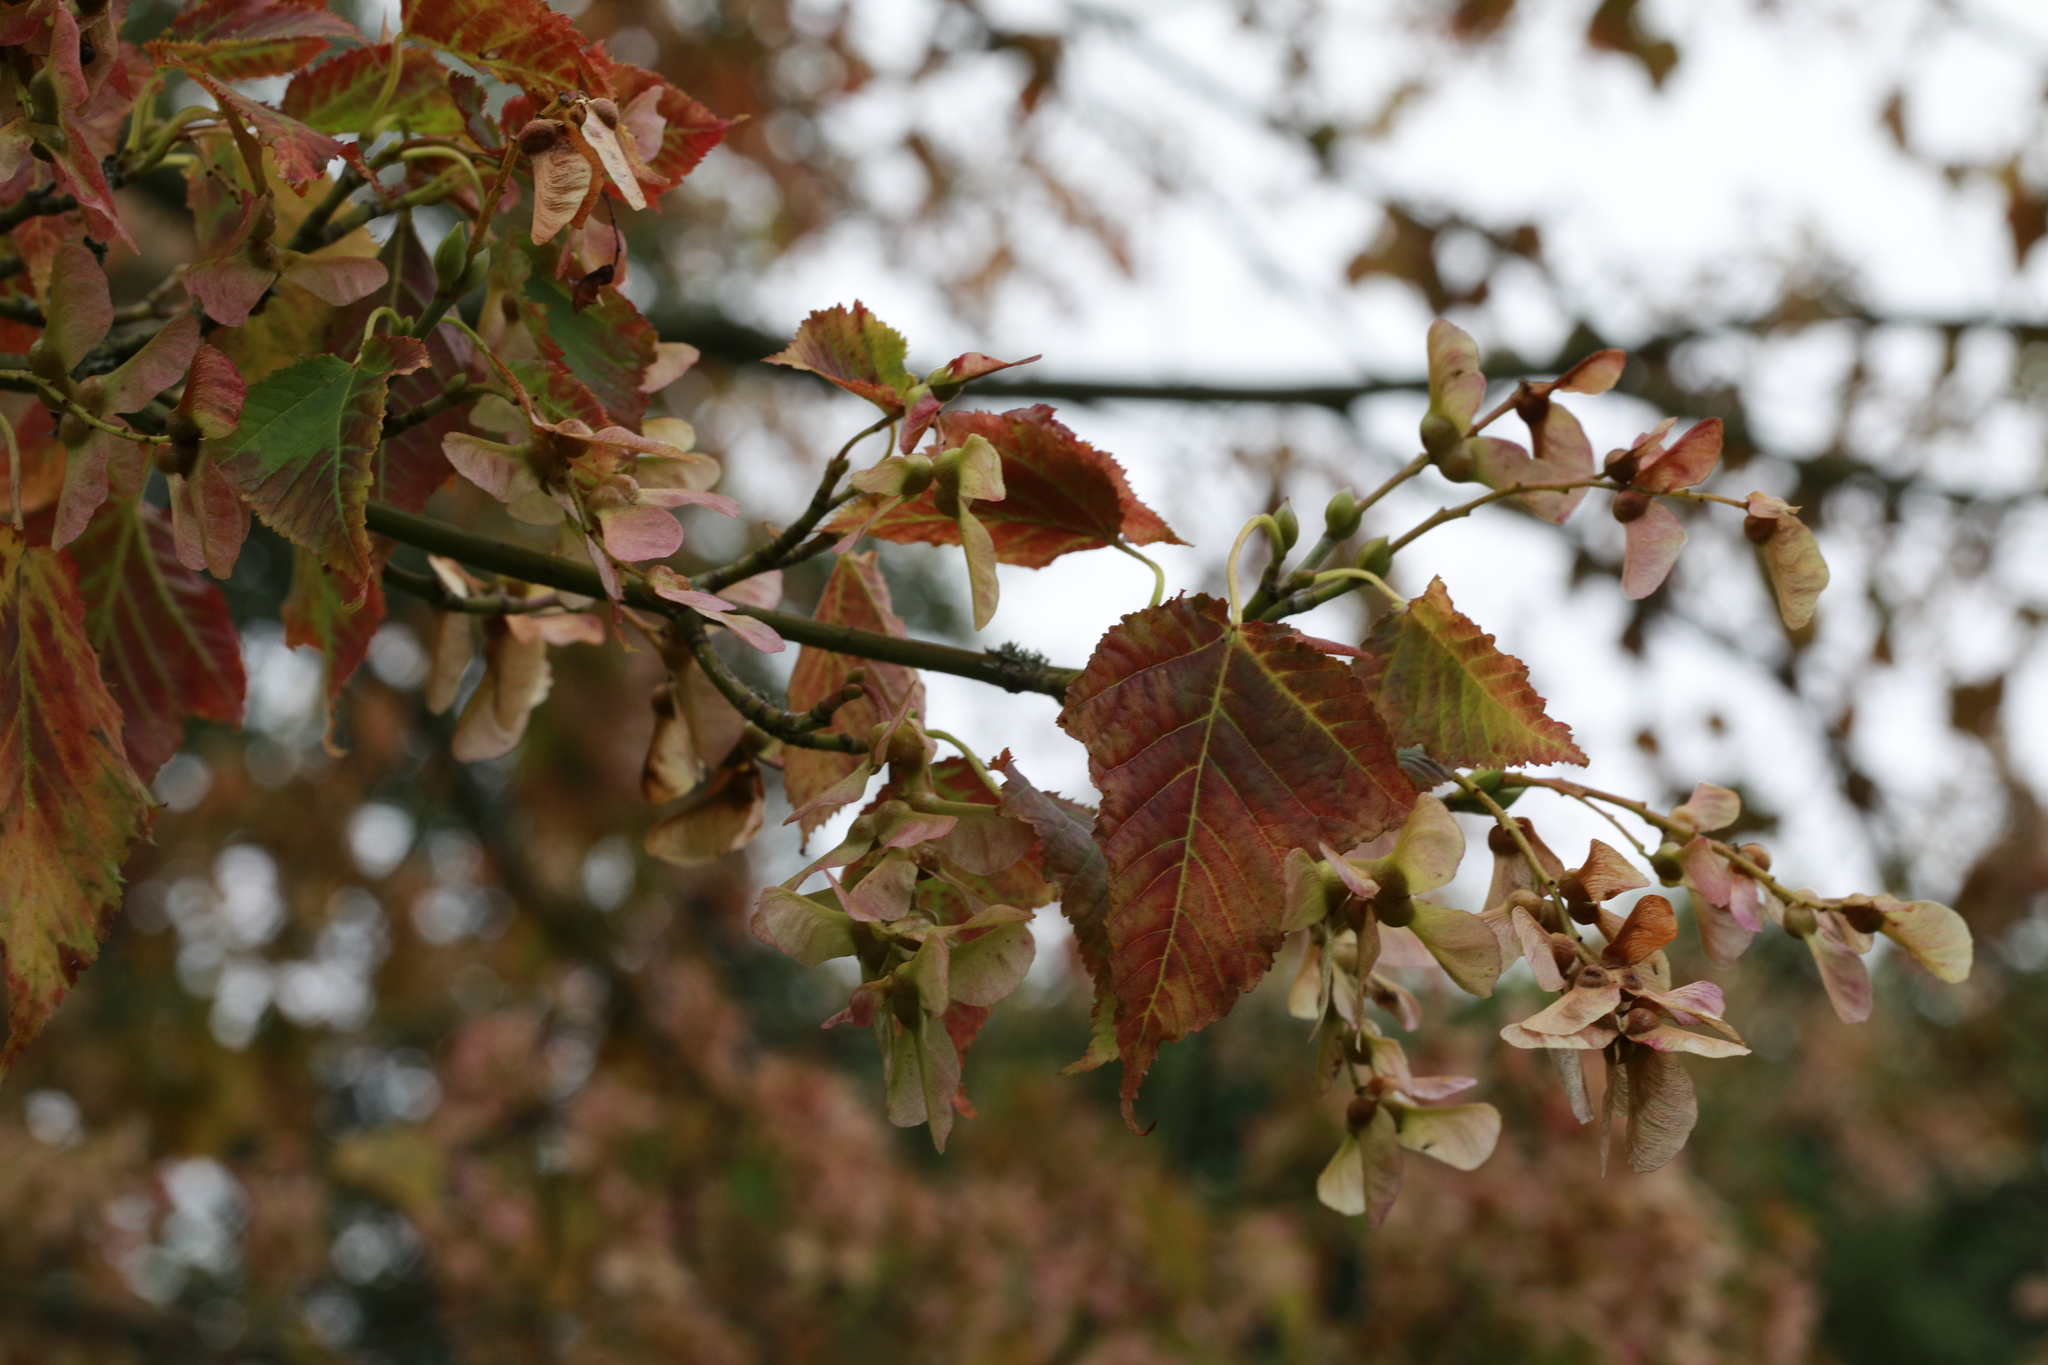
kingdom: Plantae
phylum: Tracheophyta
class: Magnoliopsida
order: Sapindales
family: Sapindaceae
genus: Acer
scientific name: Acer capillipes
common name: Kyushu maple
